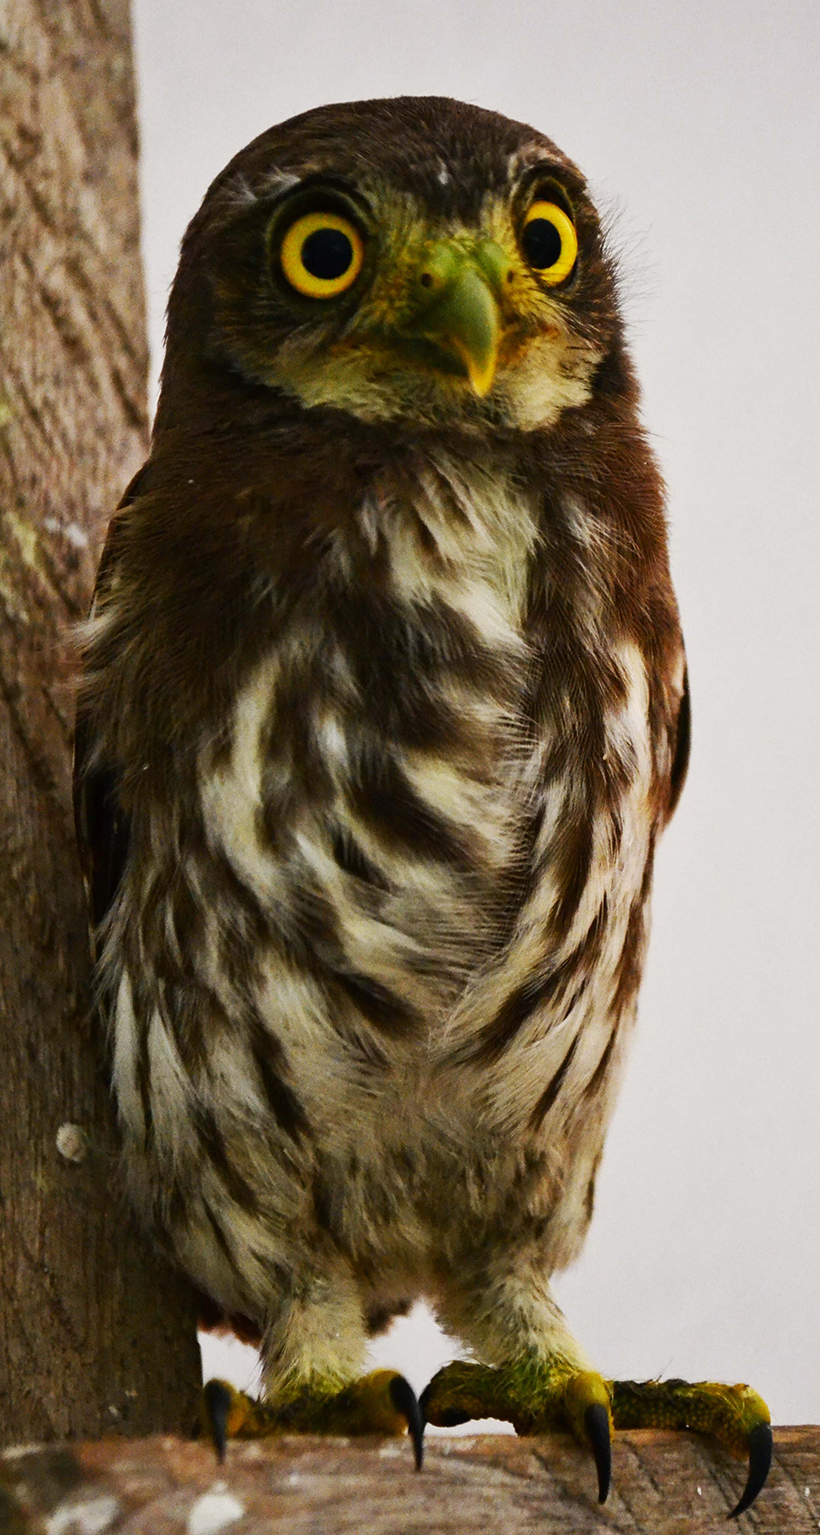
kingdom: Animalia
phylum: Chordata
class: Aves
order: Strigiformes
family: Strigidae
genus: Glaucidium
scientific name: Glaucidium brasilianum
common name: Ferruginous pygmy-owl
